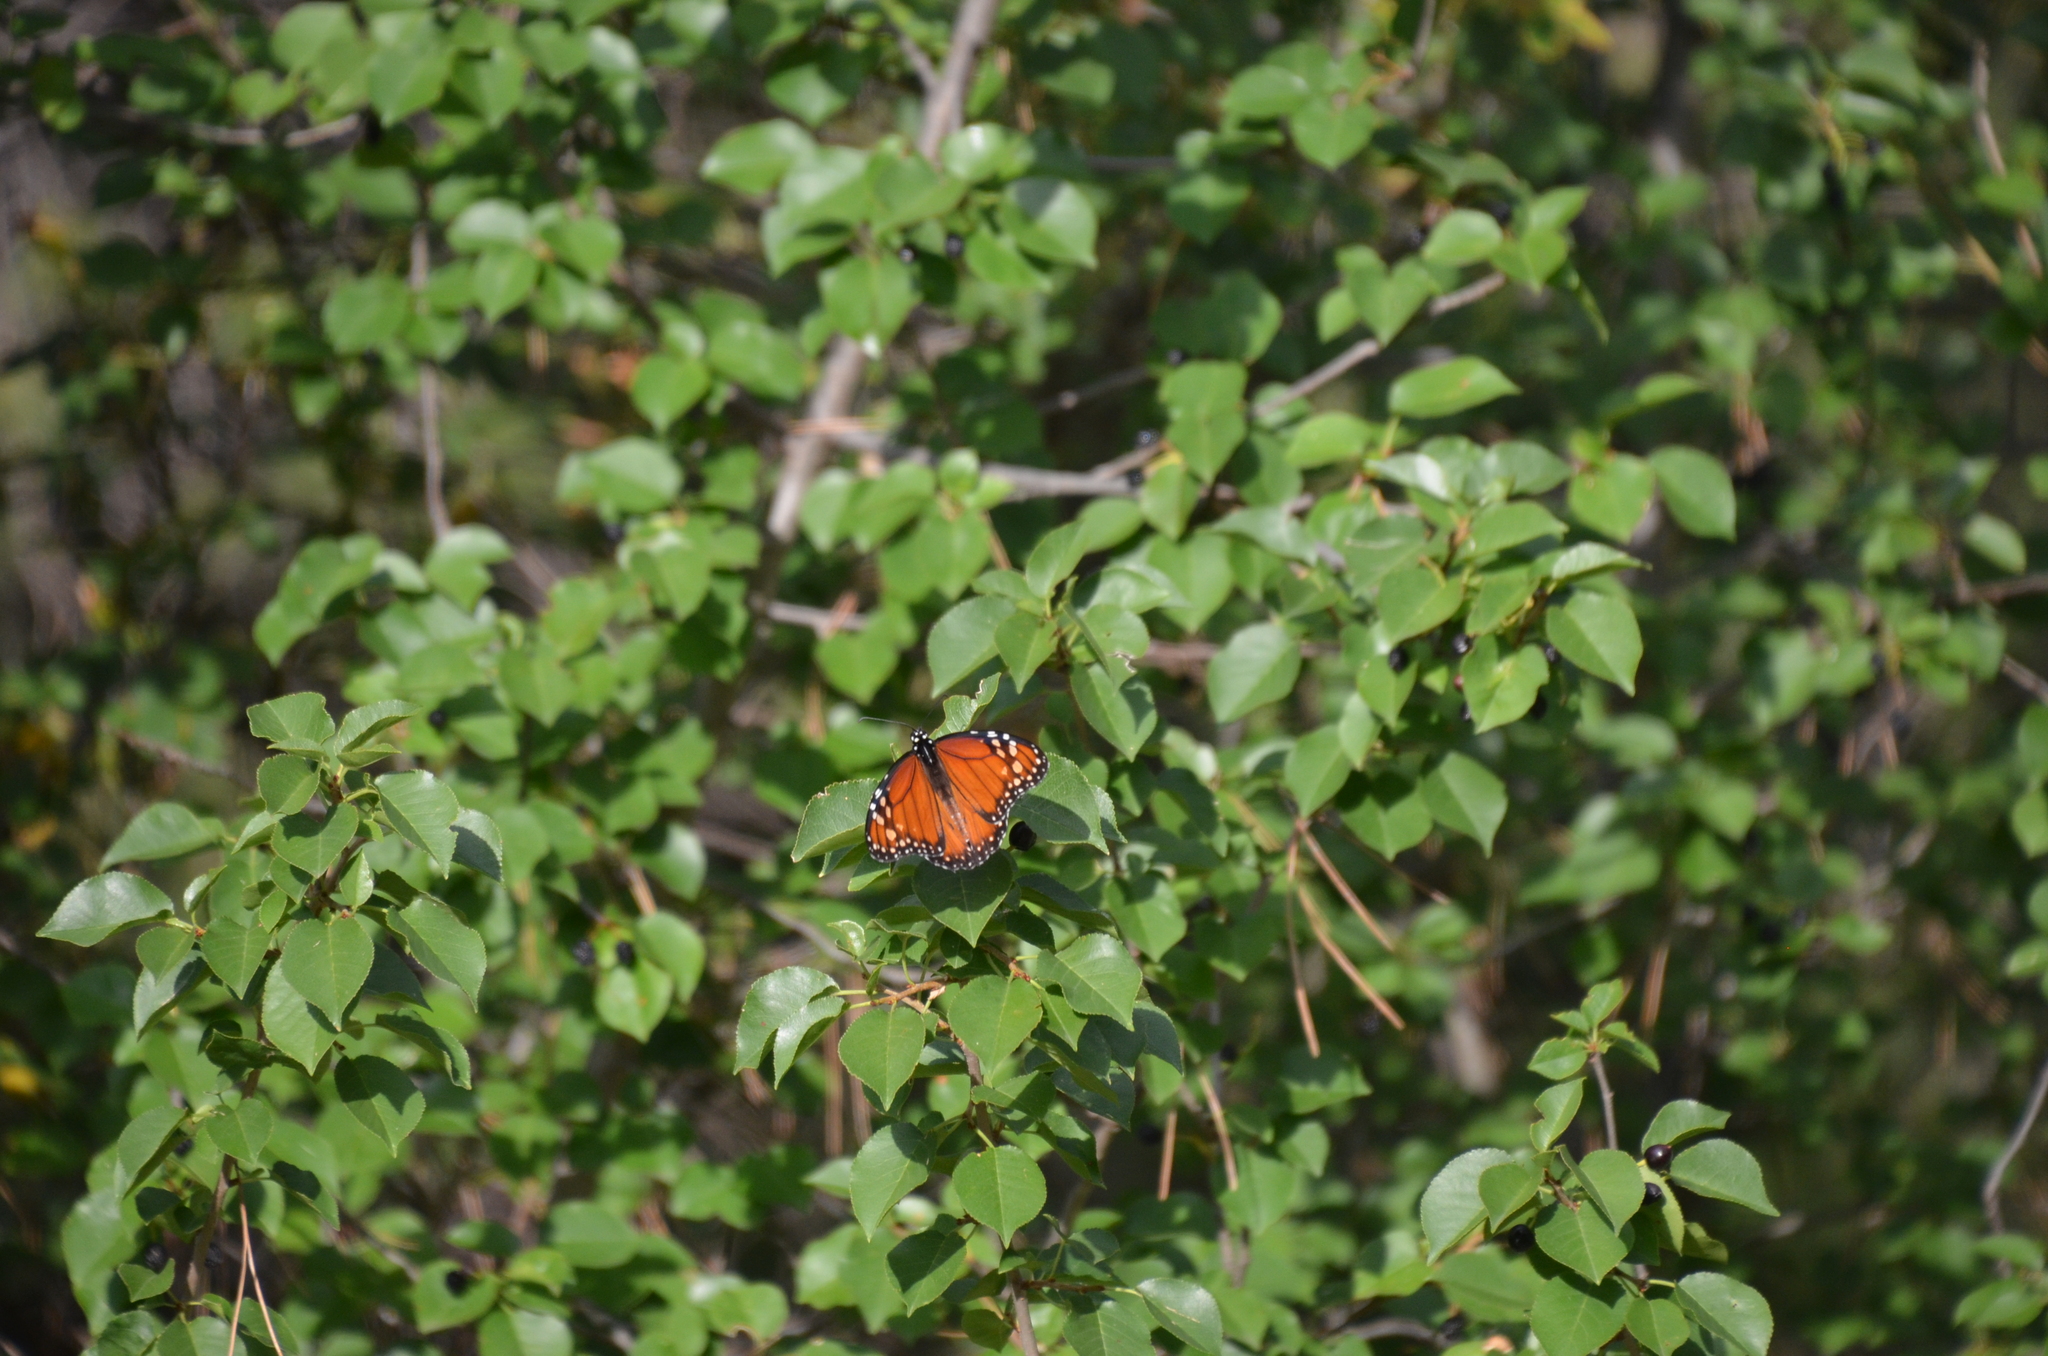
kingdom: Animalia
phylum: Arthropoda
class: Insecta
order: Lepidoptera
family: Nymphalidae
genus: Danaus
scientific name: Danaus erippus
